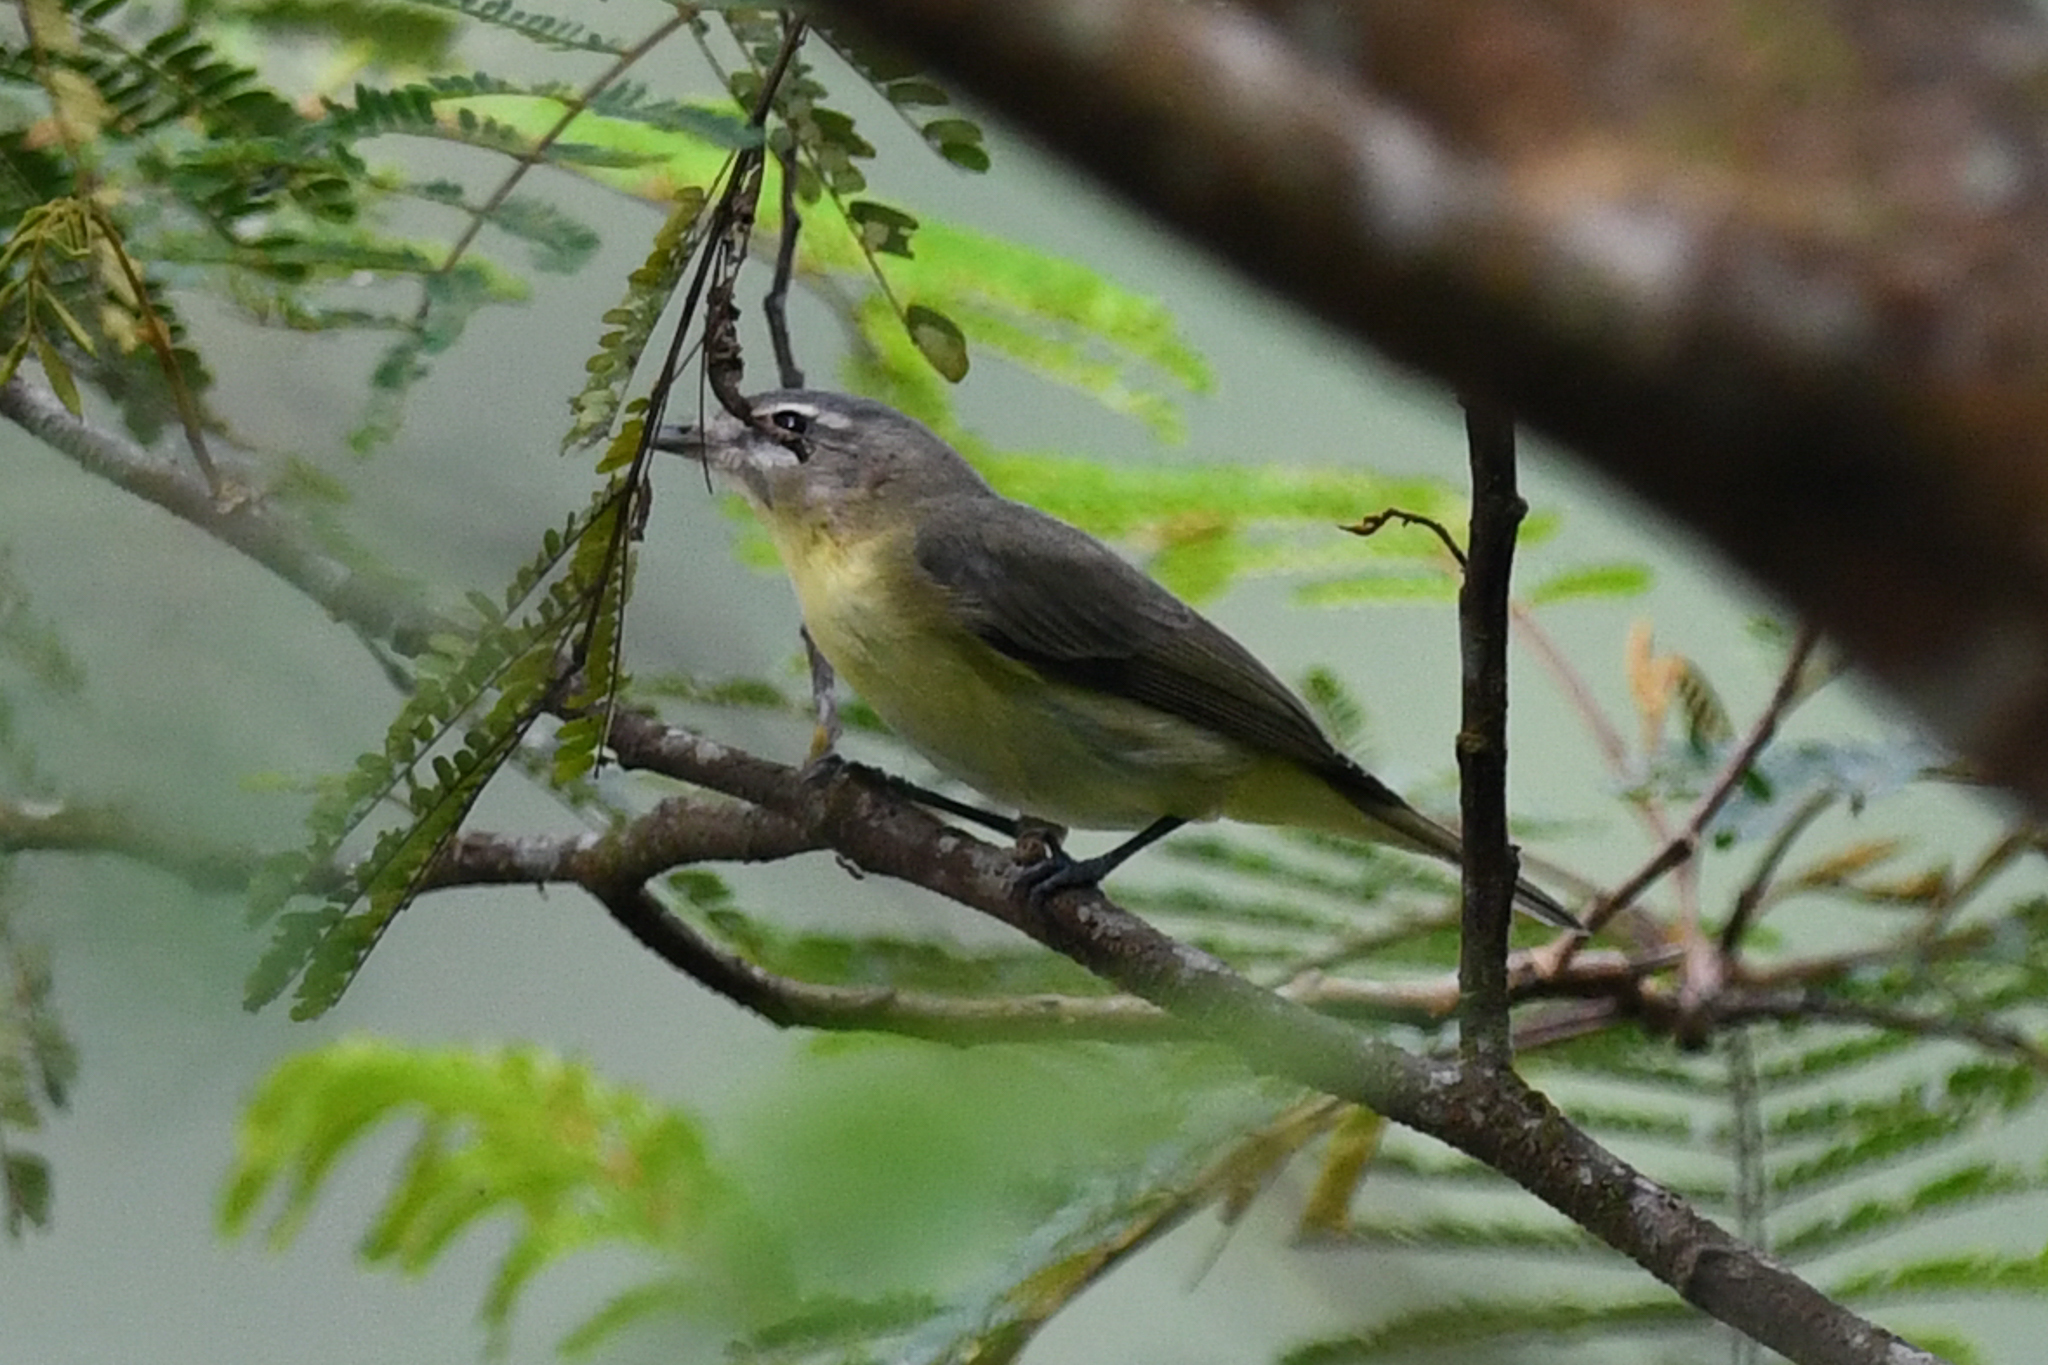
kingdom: Animalia
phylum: Chordata
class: Aves
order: Passeriformes
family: Vireonidae
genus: Vireo
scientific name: Vireo philadelphicus
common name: Philadelphia vireo
